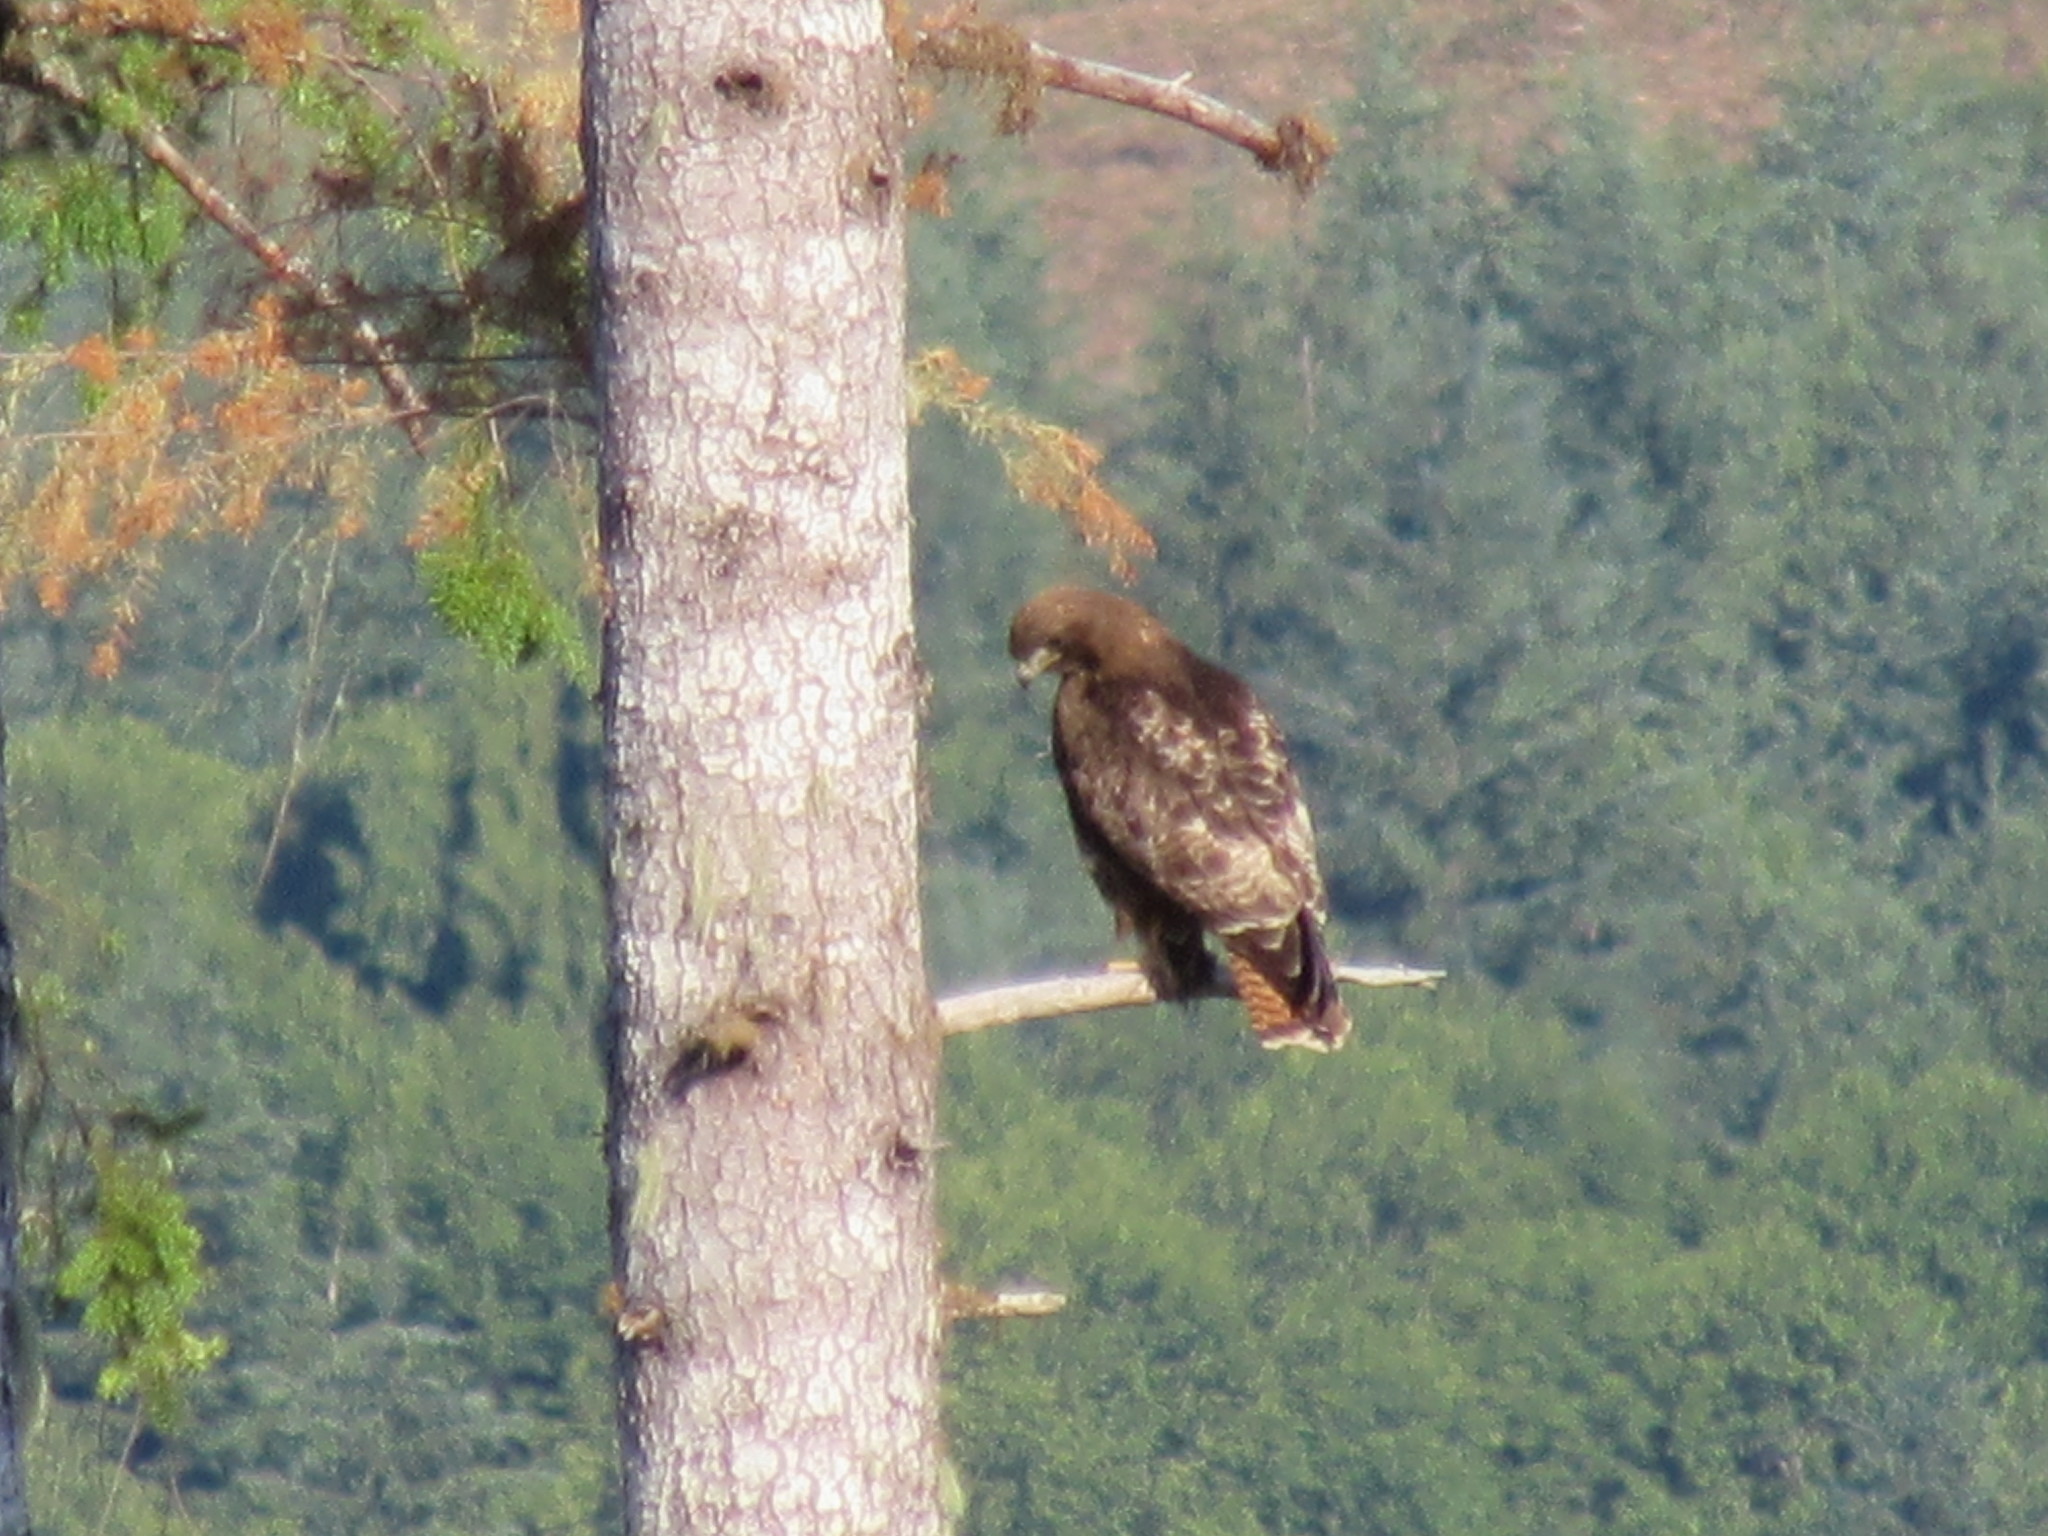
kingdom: Animalia
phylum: Chordata
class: Aves
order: Accipitriformes
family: Accipitridae
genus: Buteo
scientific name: Buteo jamaicensis
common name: Red-tailed hawk
